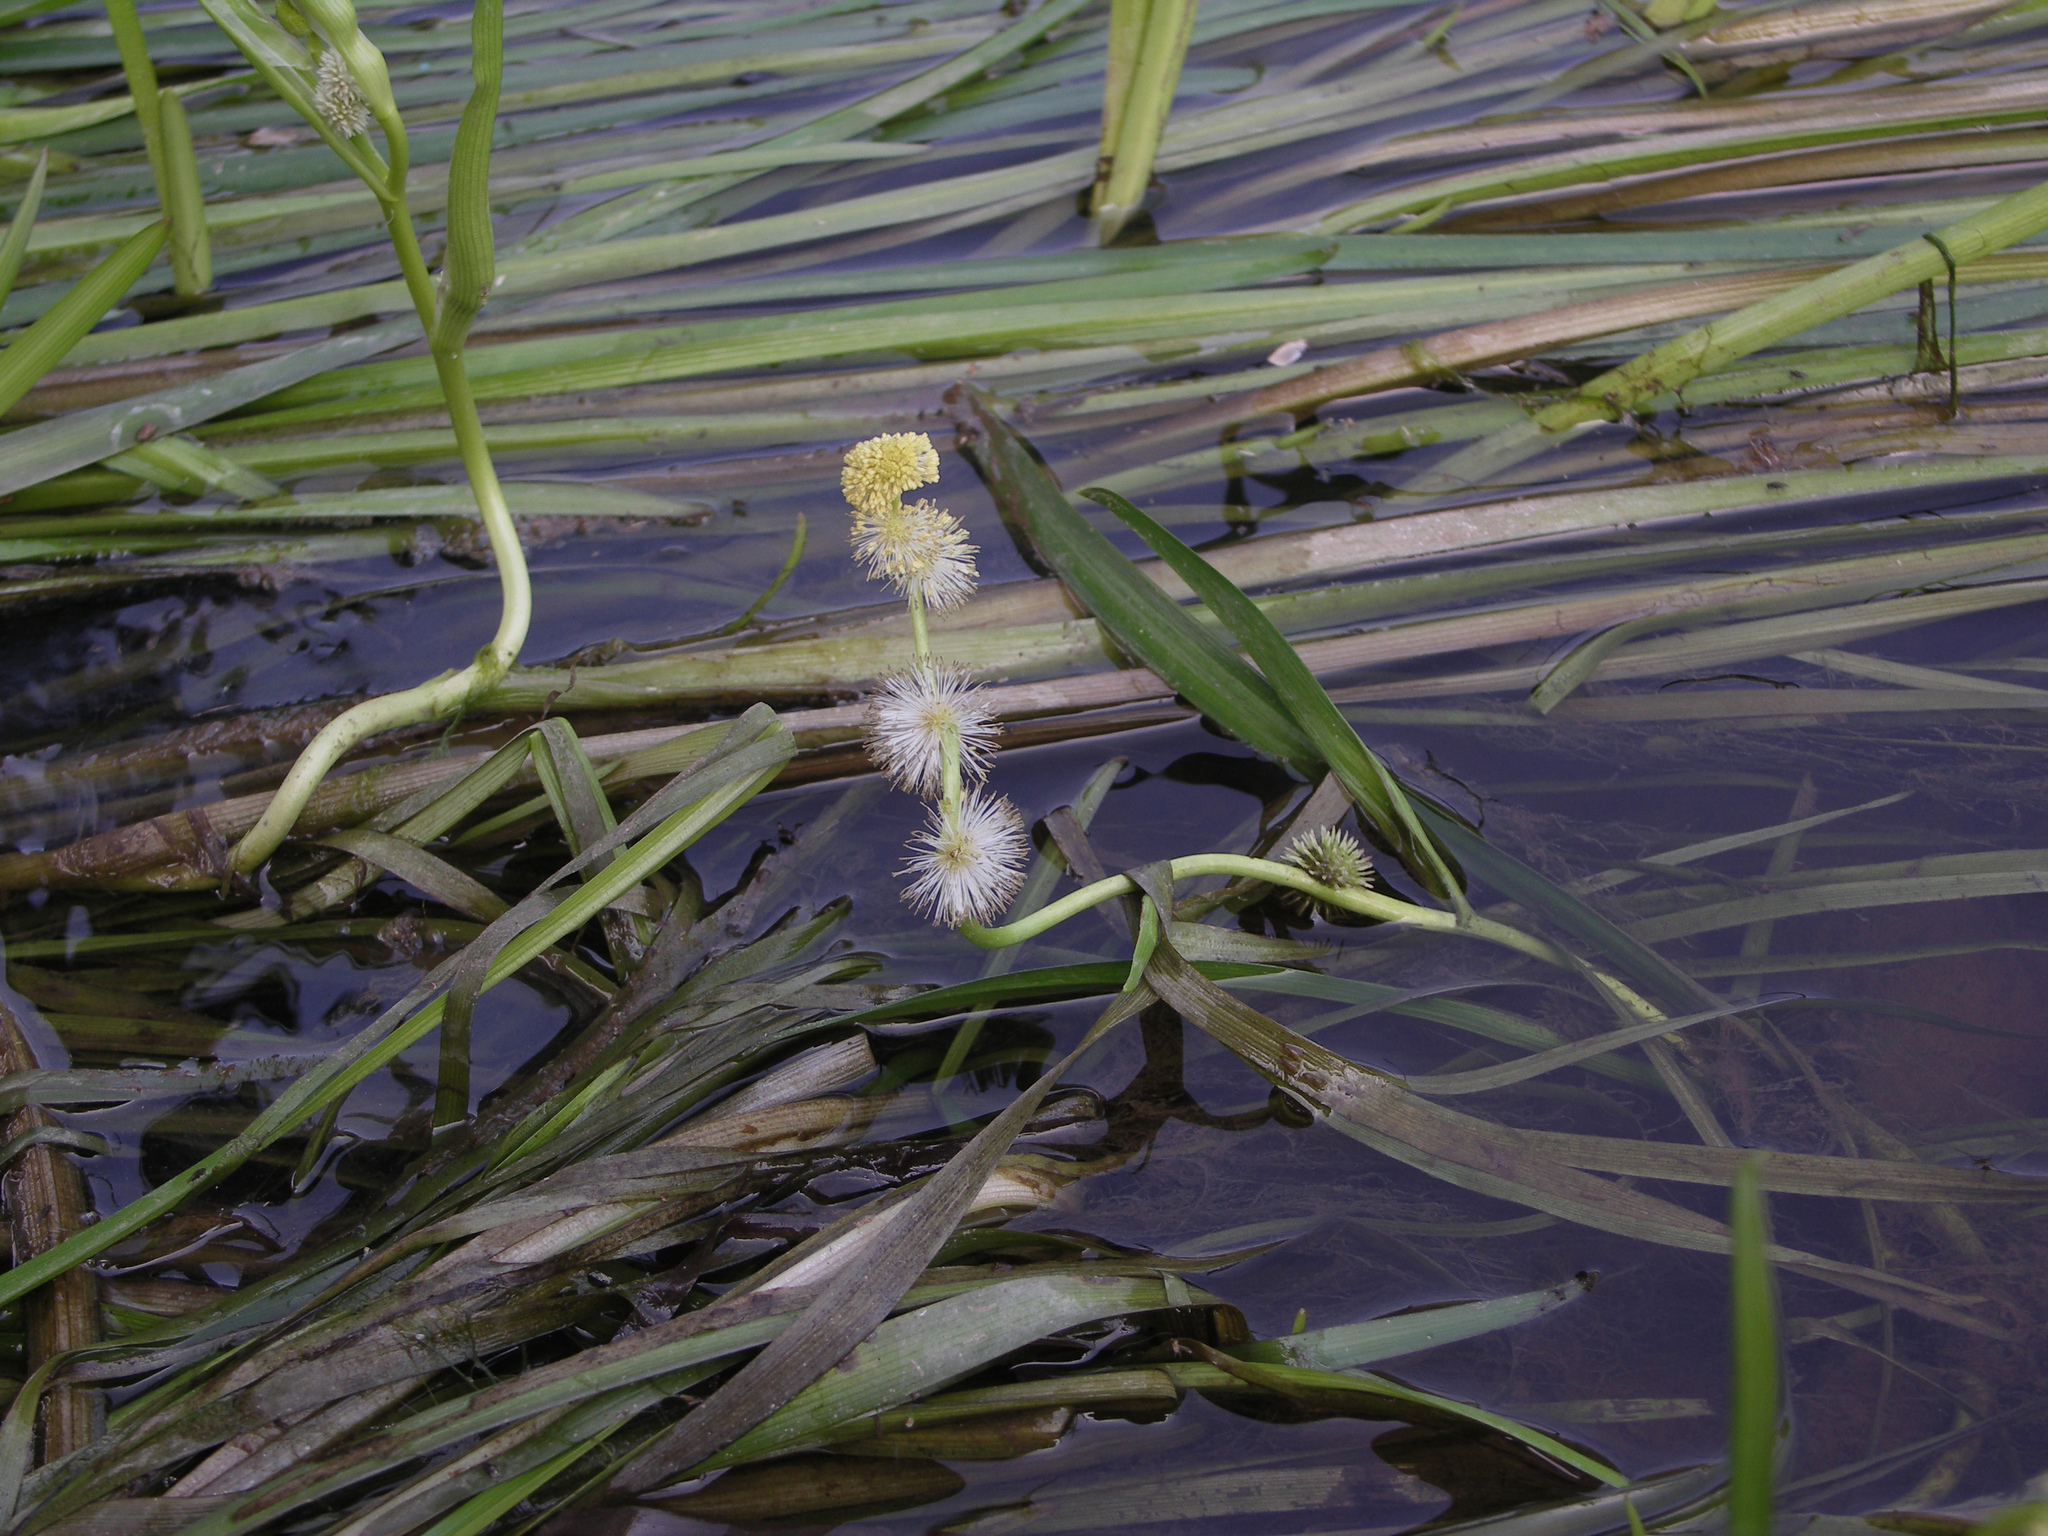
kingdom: Plantae
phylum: Tracheophyta
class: Liliopsida
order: Poales
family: Typhaceae
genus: Sparganium
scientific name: Sparganium emersum
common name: Unbranched bur-reed
